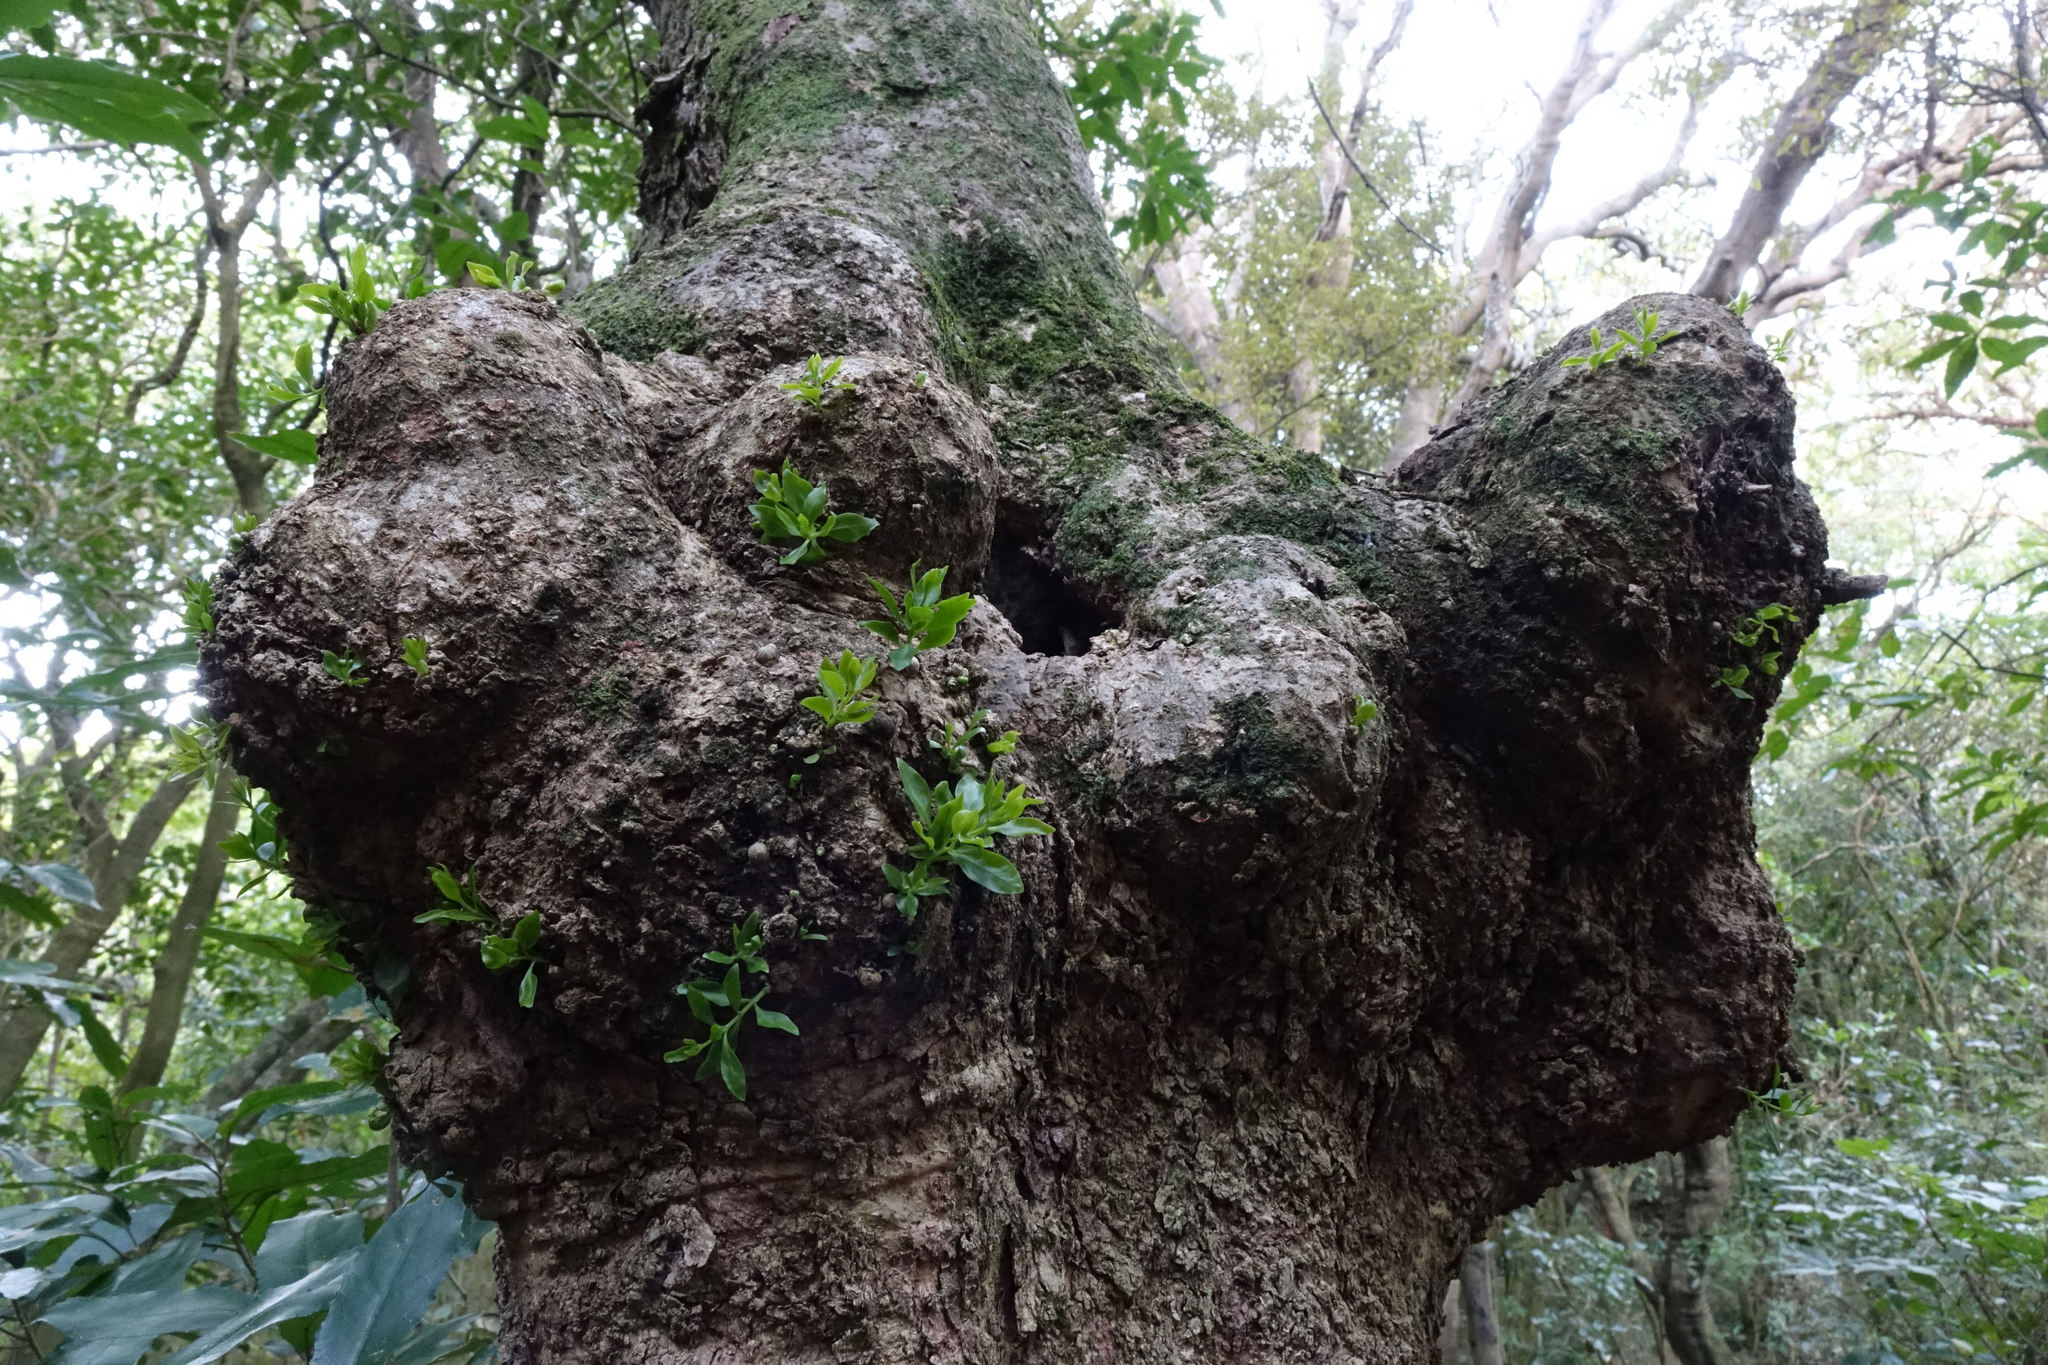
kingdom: Plantae
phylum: Tracheophyta
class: Magnoliopsida
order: Santalales
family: Loranthaceae
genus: Tupeia
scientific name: Tupeia antarctica
